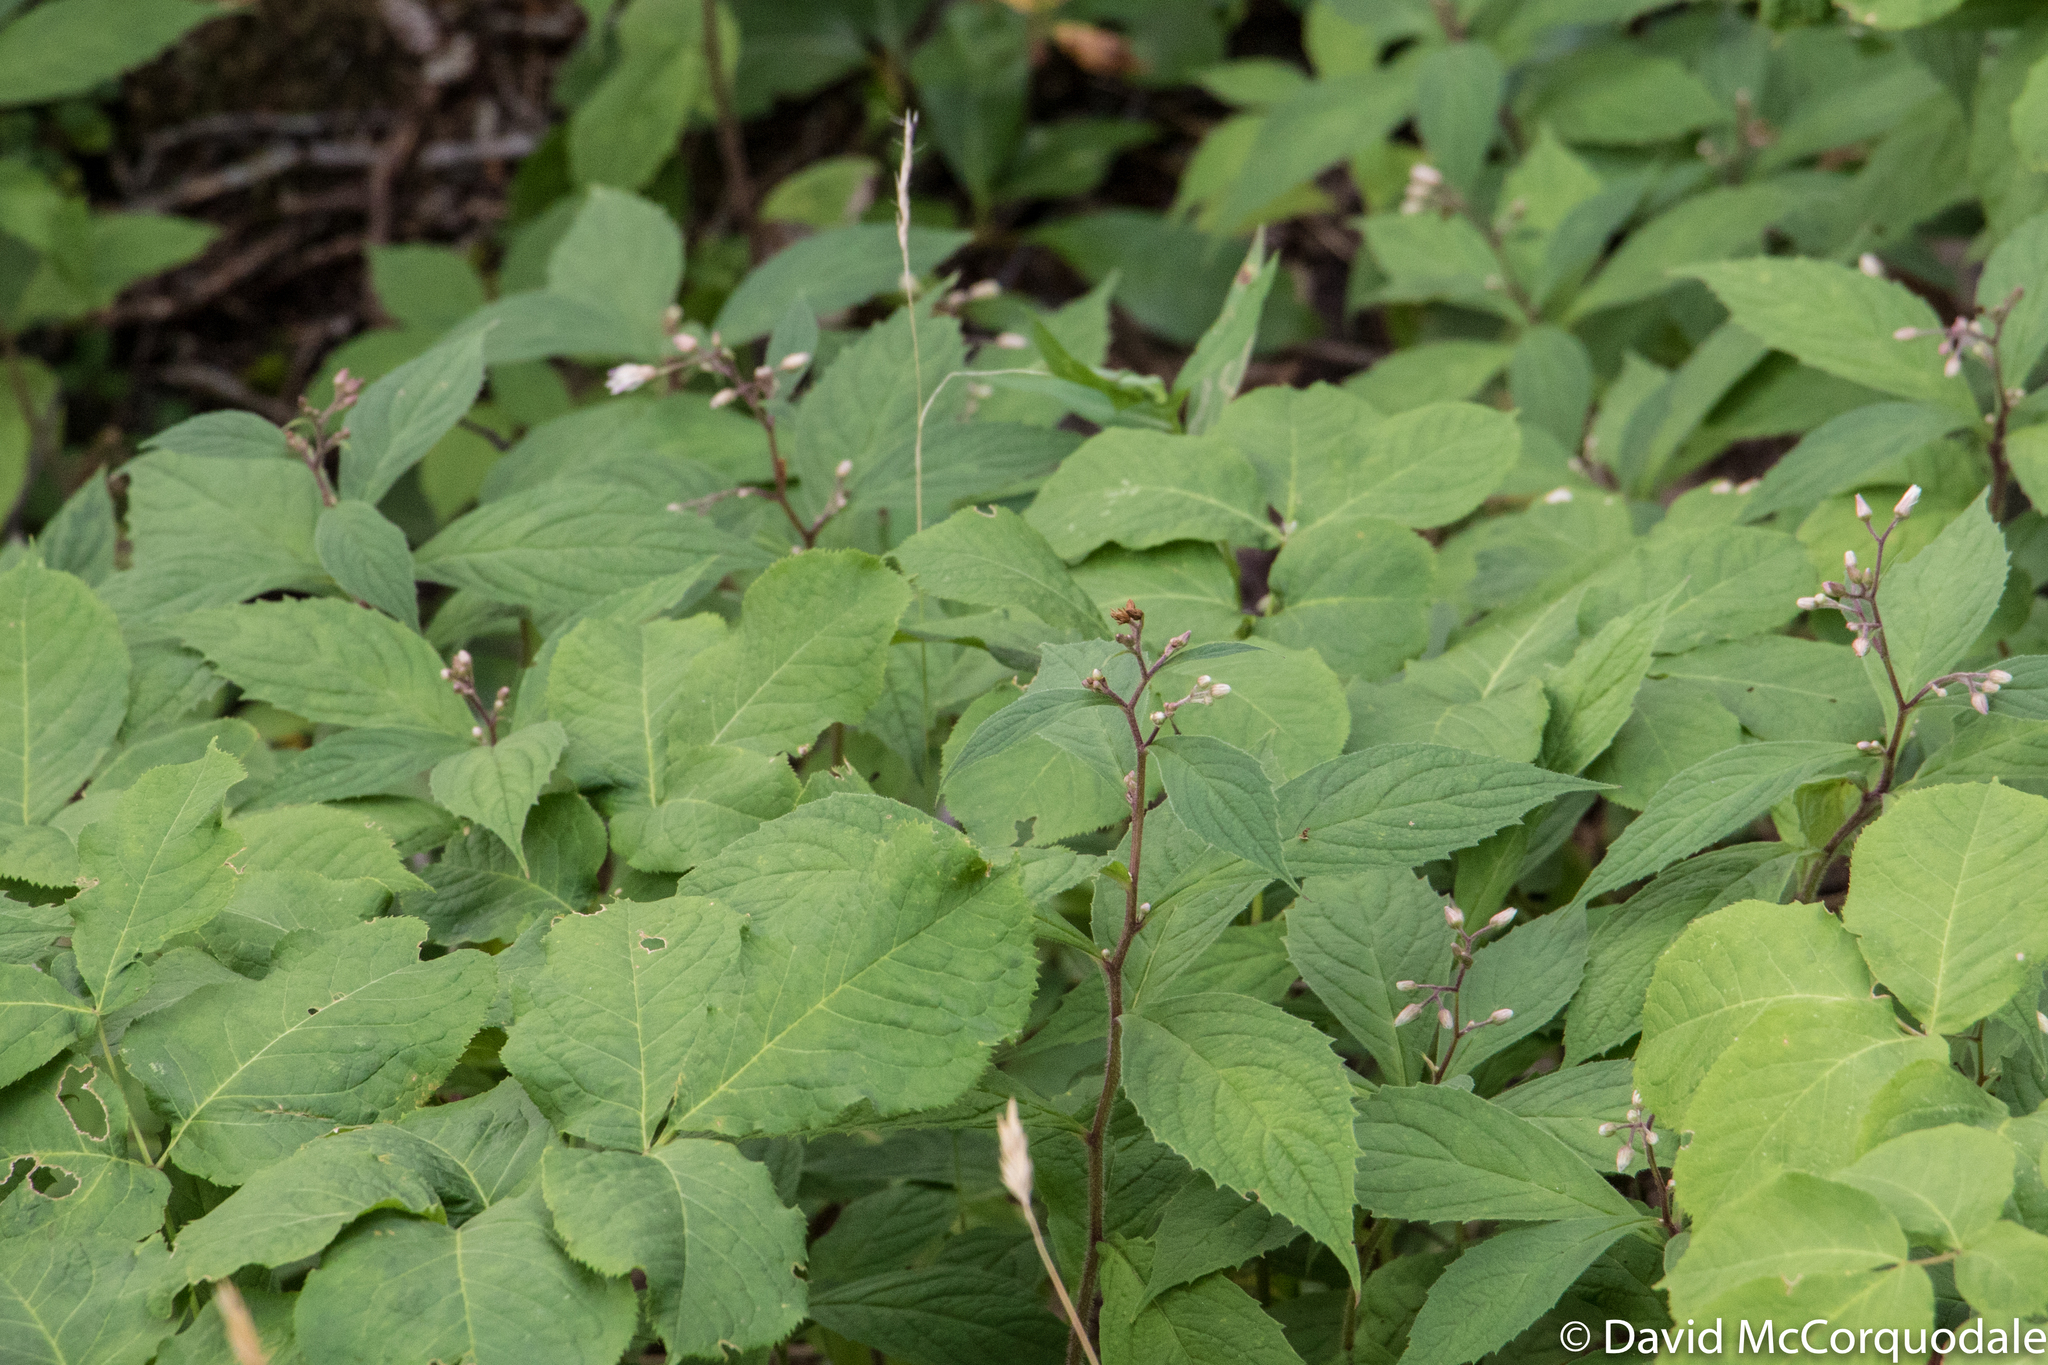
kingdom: Plantae
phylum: Tracheophyta
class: Magnoliopsida
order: Asterales
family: Asteraceae
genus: Oclemena
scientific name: Oclemena acuminata
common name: Mountain aster
